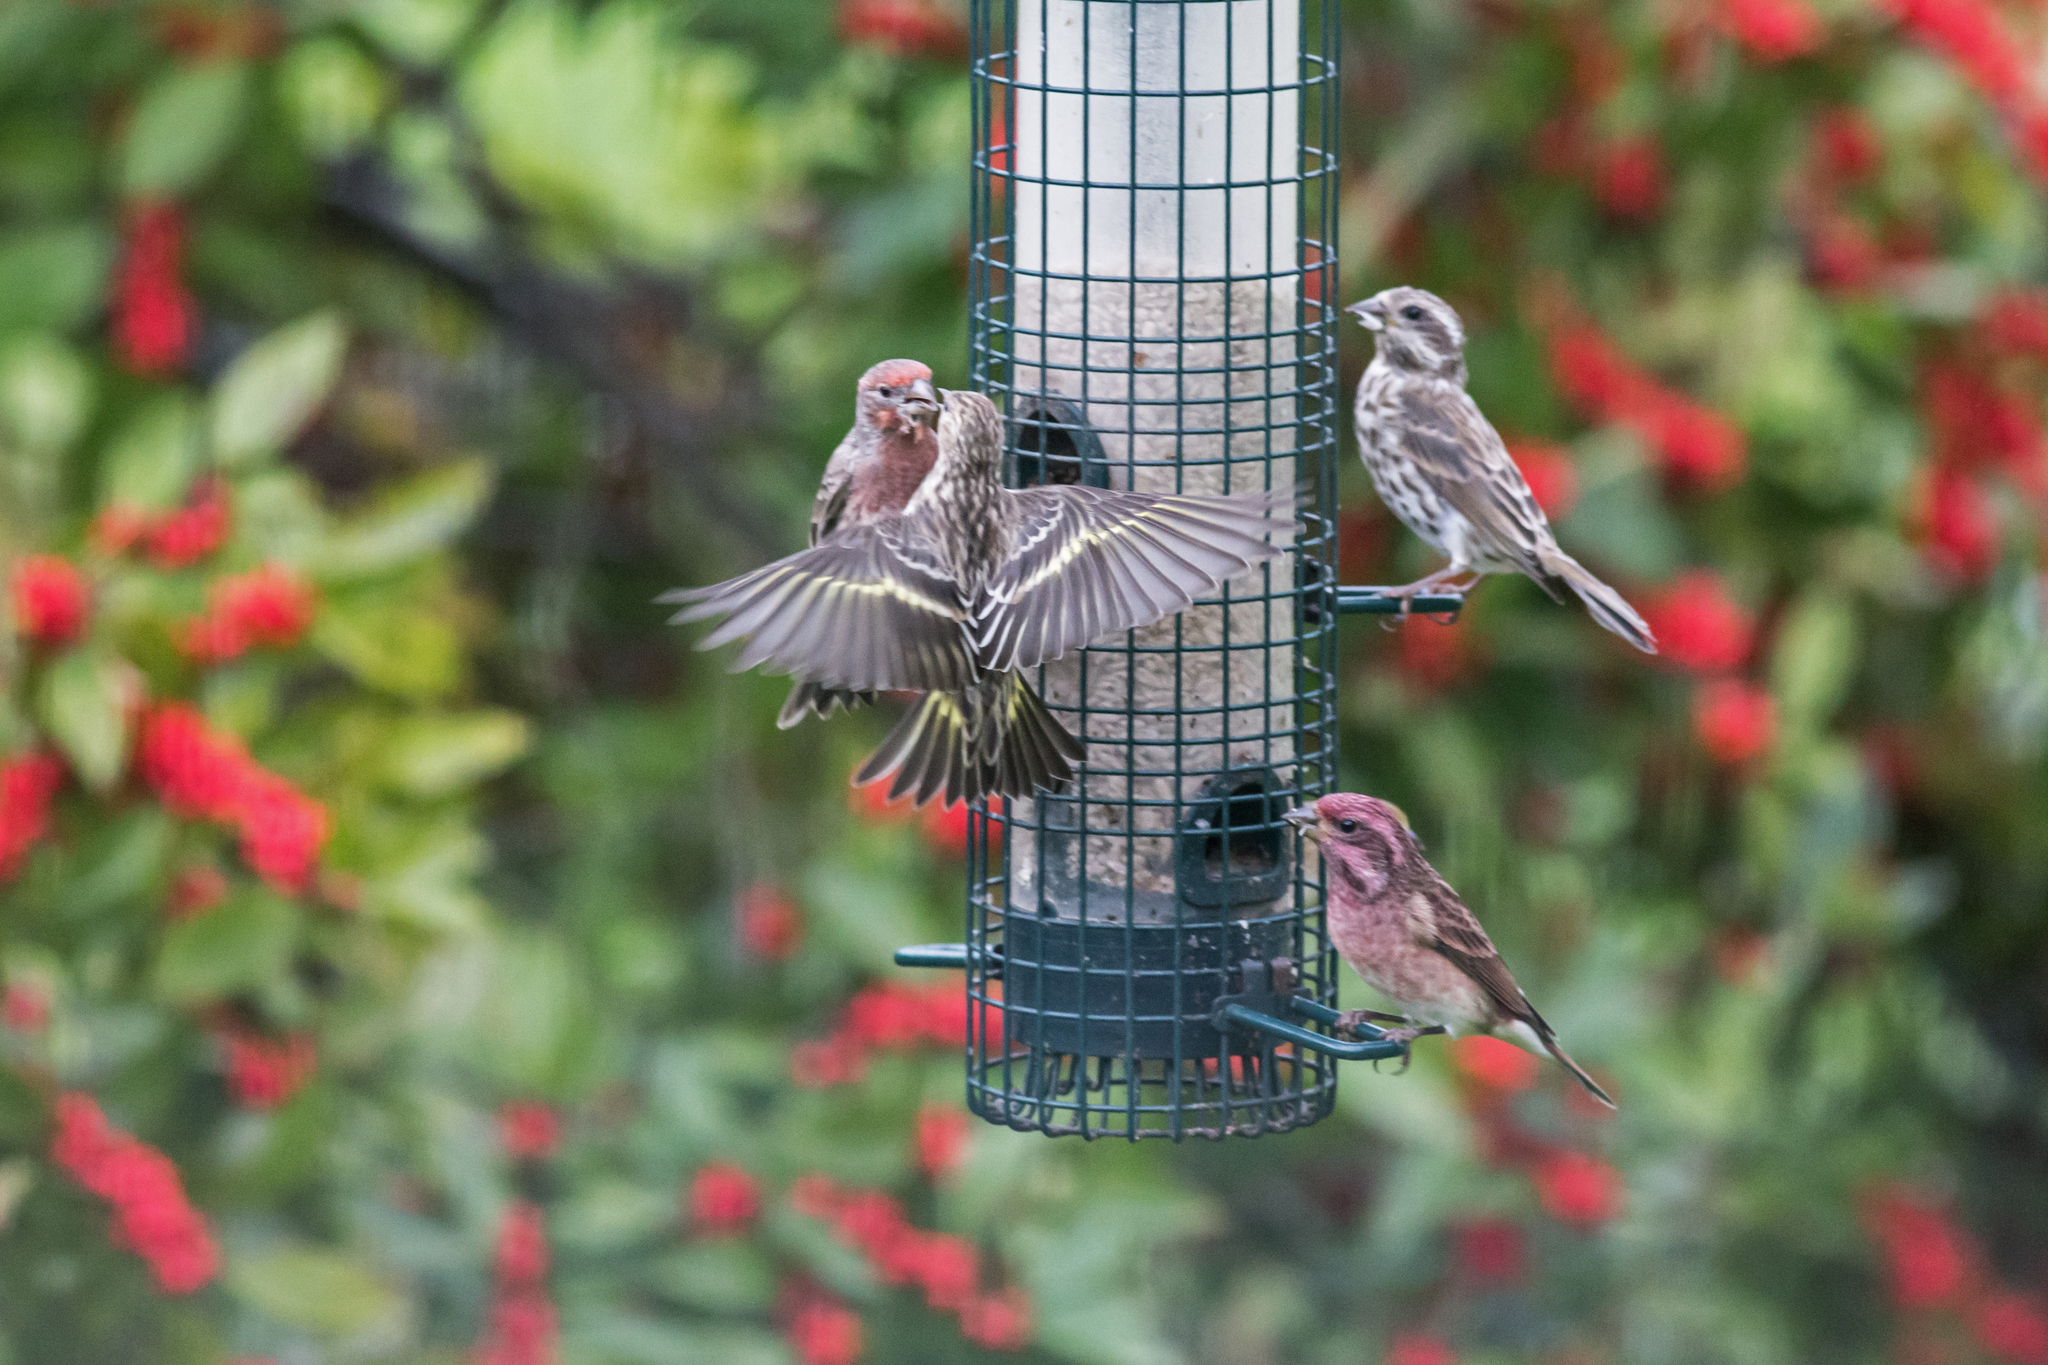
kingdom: Animalia
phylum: Chordata
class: Aves
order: Passeriformes
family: Fringillidae
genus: Spinus
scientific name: Spinus pinus
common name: Pine siskin
